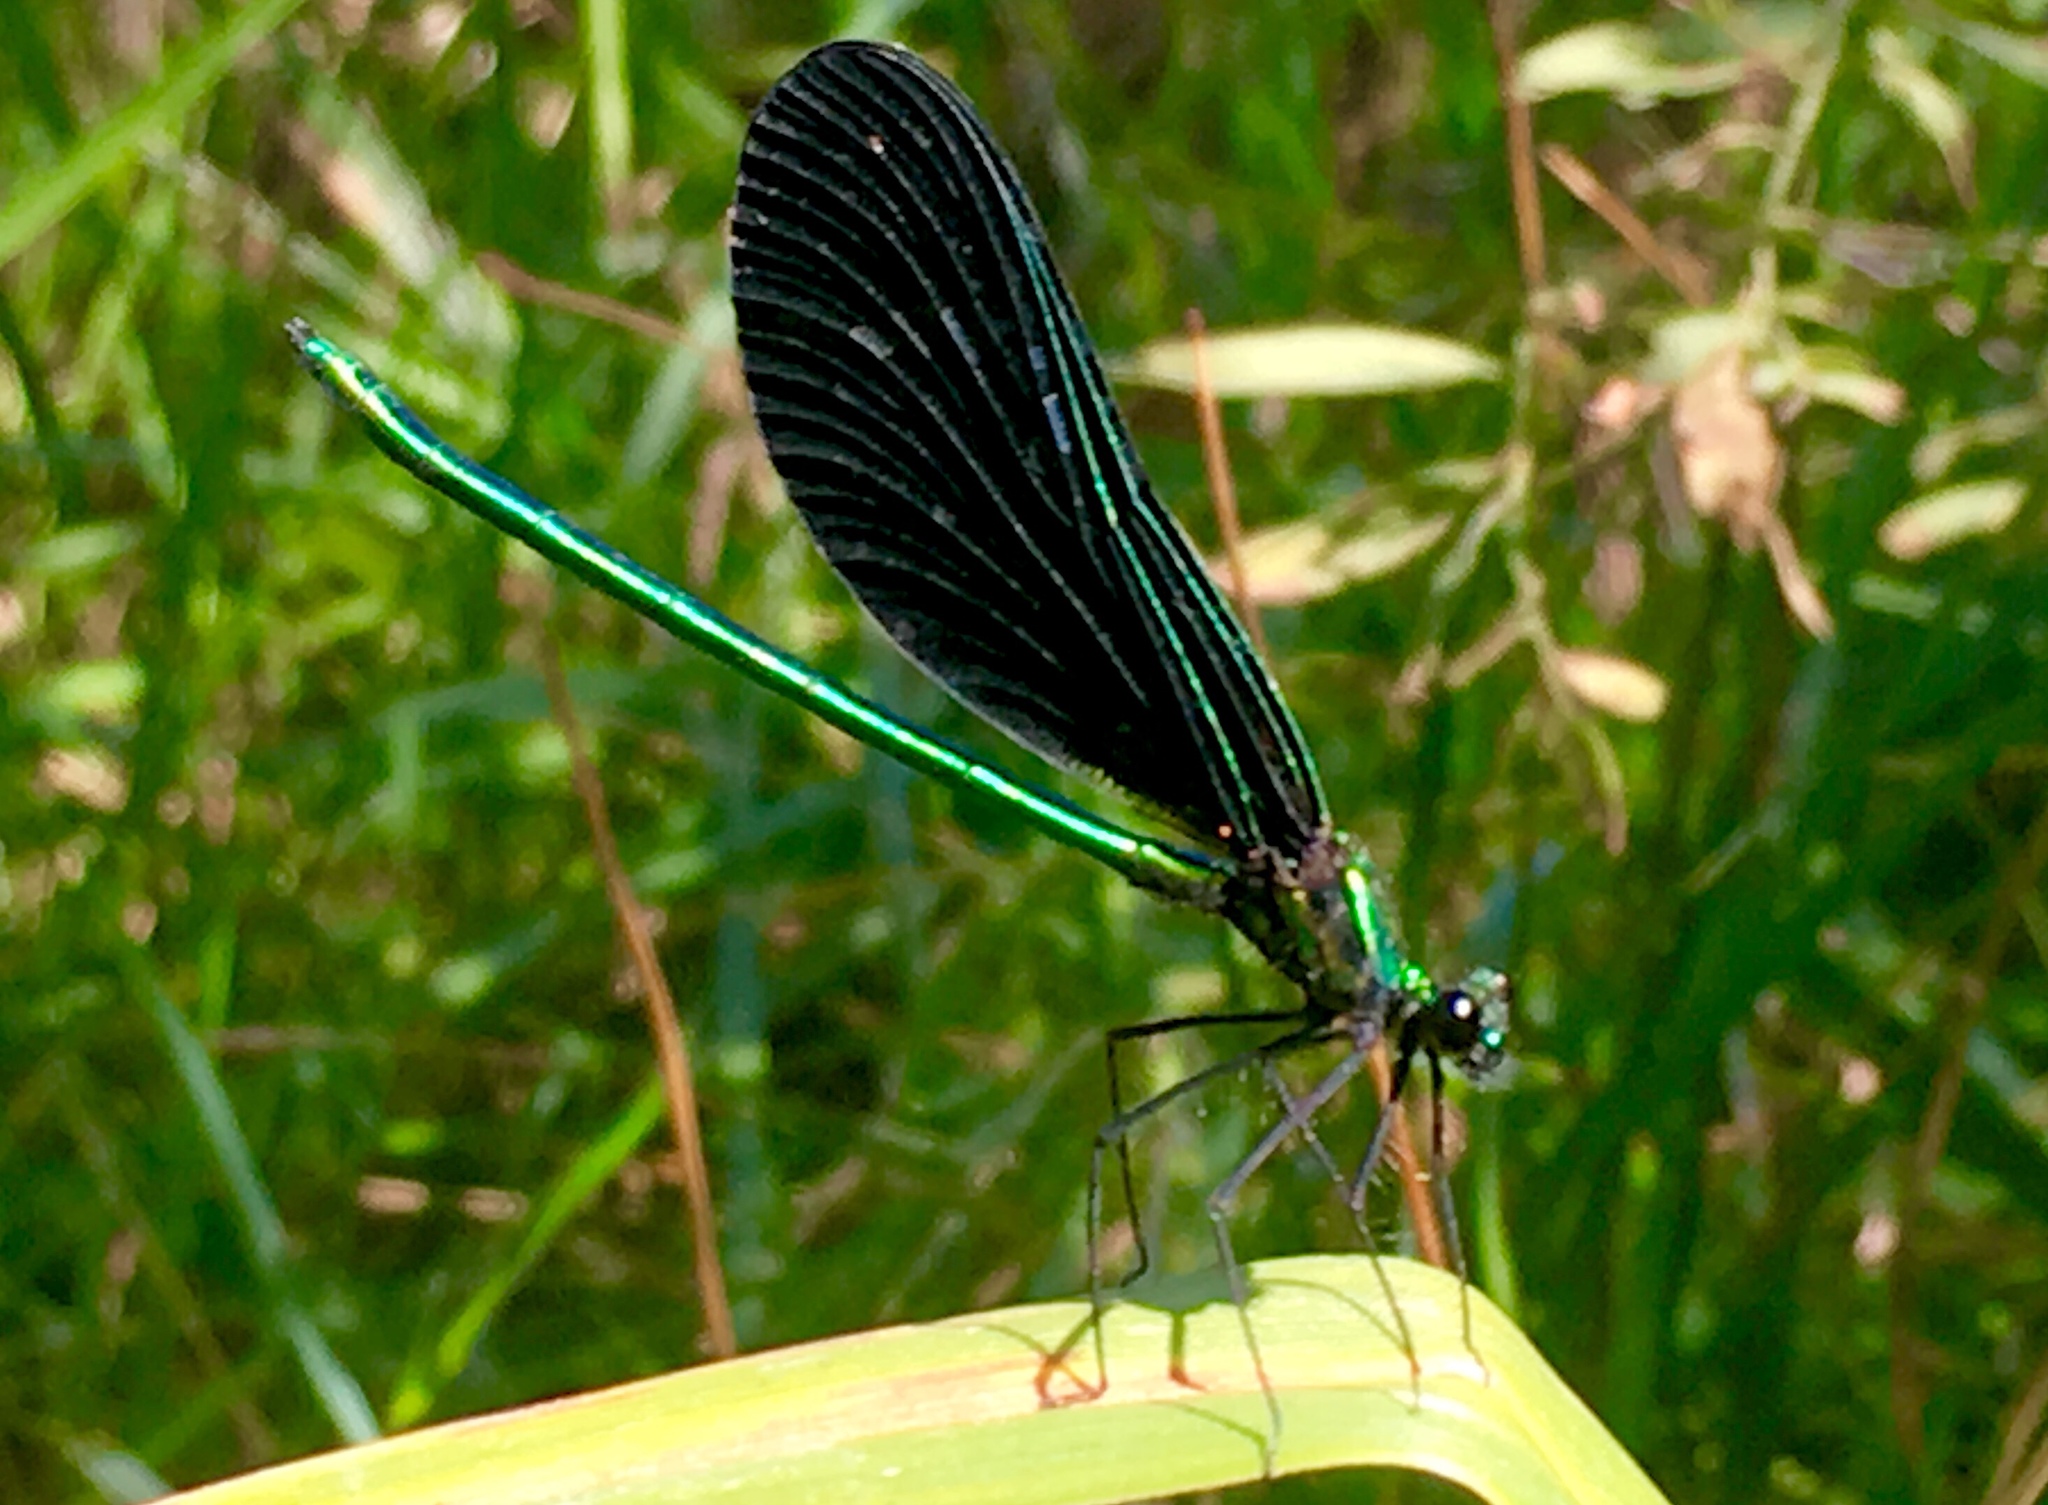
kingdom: Animalia
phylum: Arthropoda
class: Insecta
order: Odonata
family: Calopterygidae
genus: Calopteryx
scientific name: Calopteryx maculata
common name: Ebony jewelwing
